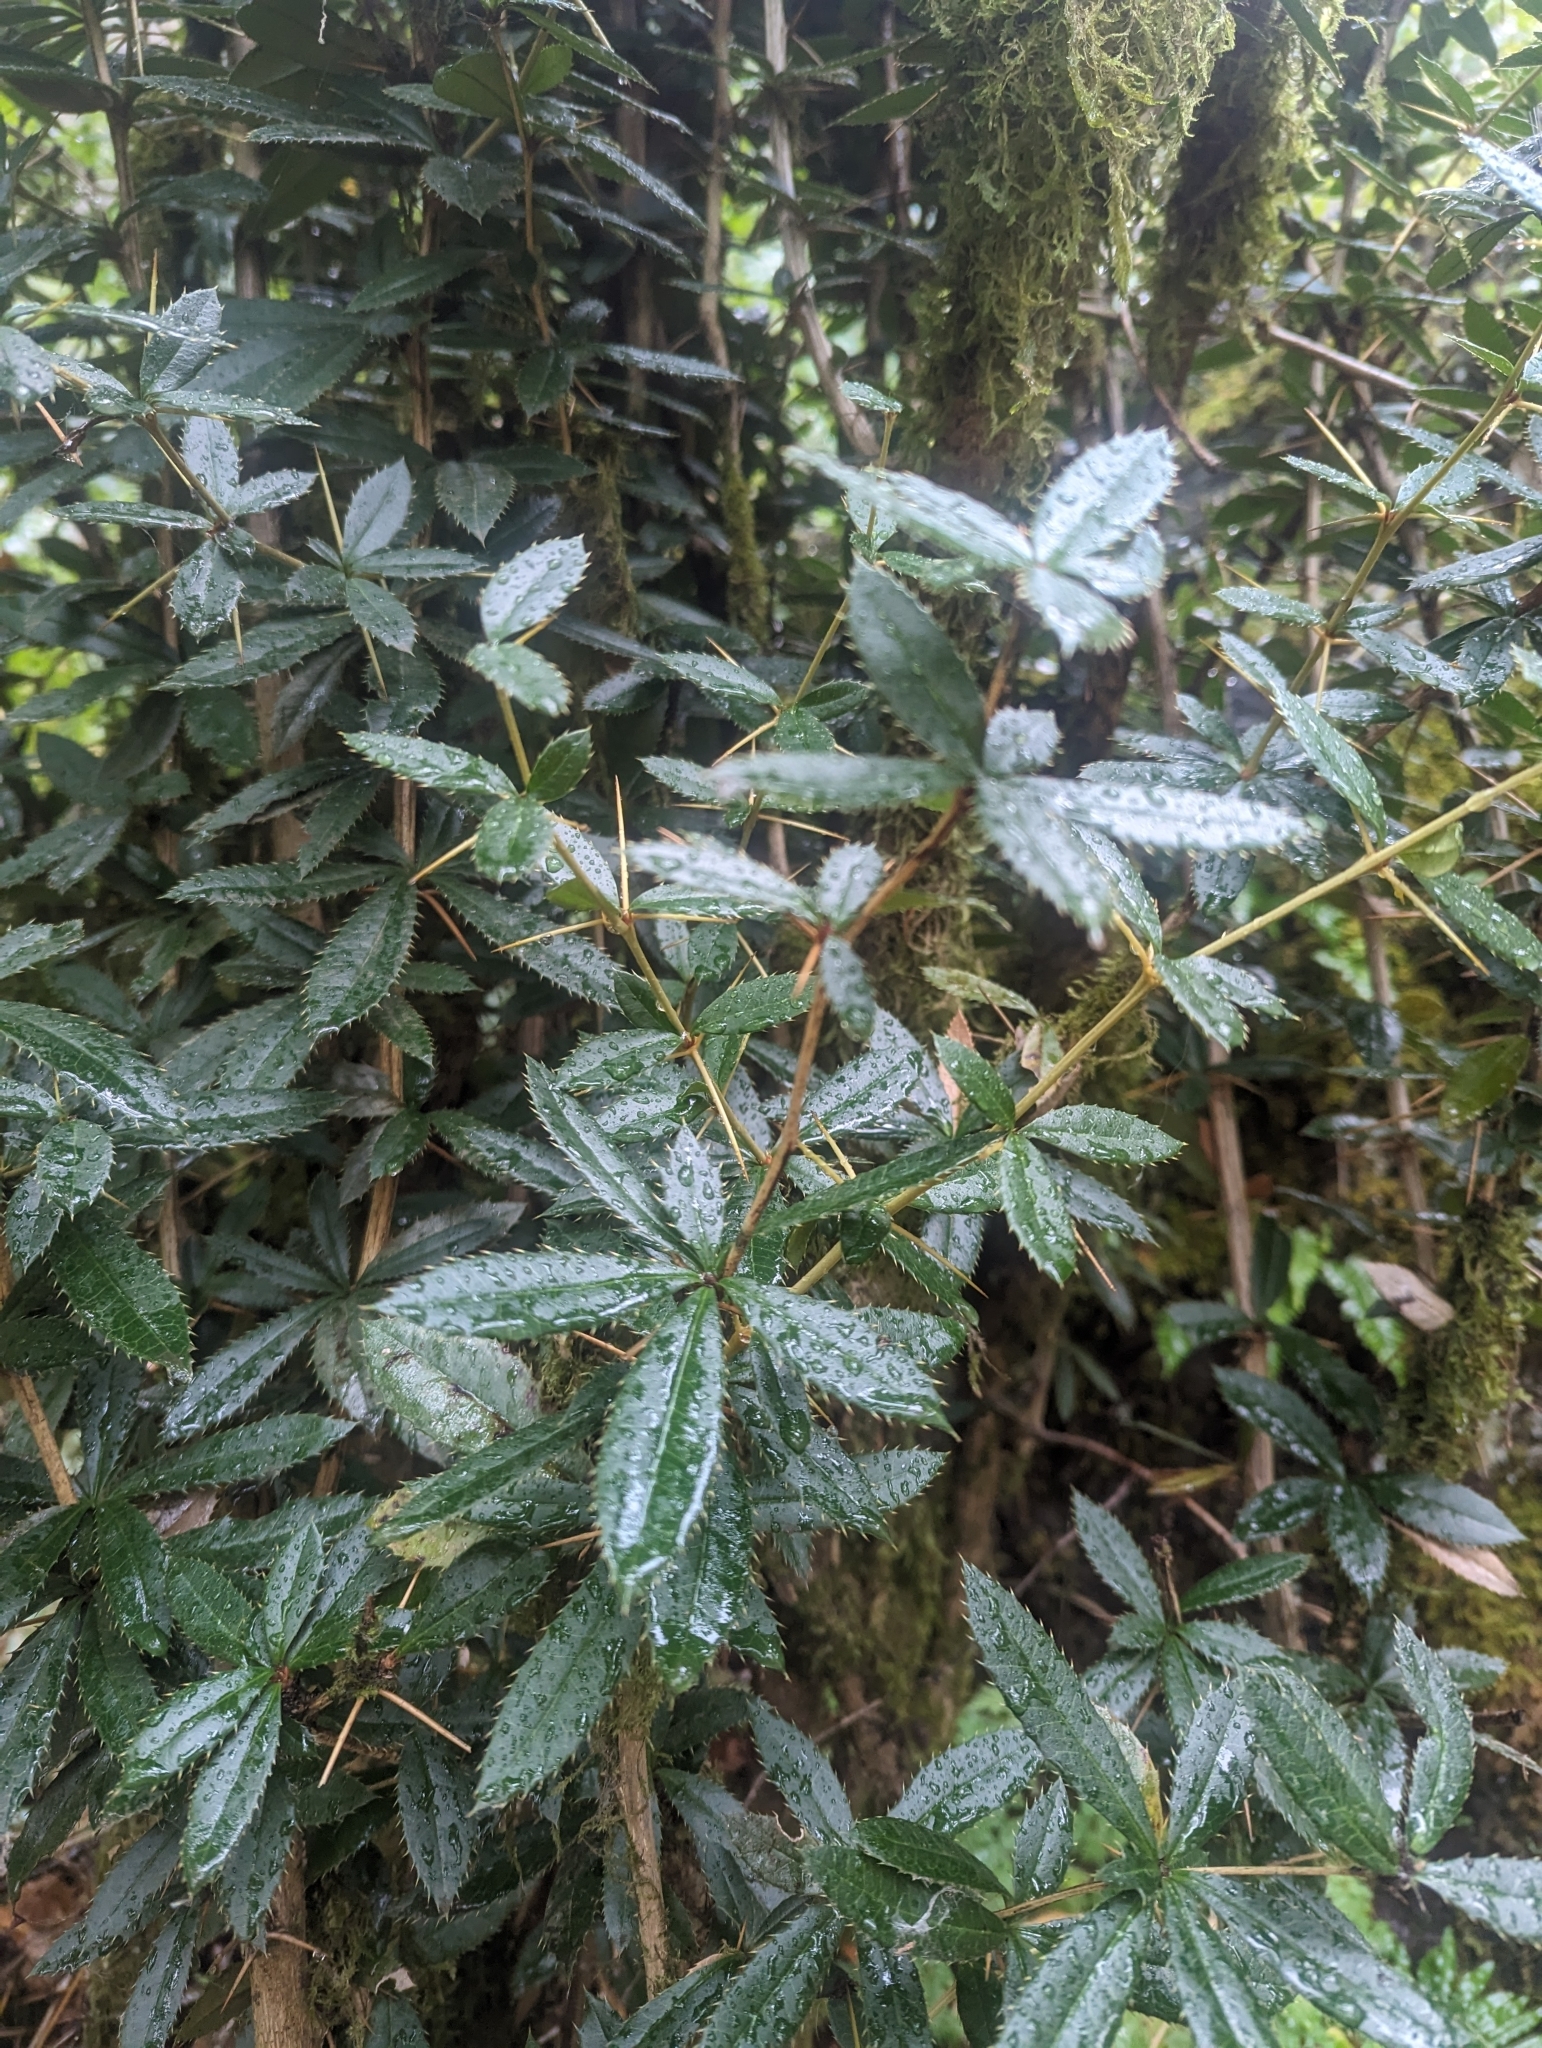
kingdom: Plantae
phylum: Tracheophyta
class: Magnoliopsida
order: Ranunculales
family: Berberidaceae
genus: Berberis
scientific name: Berberis julianae
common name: Wintergreen barberry
